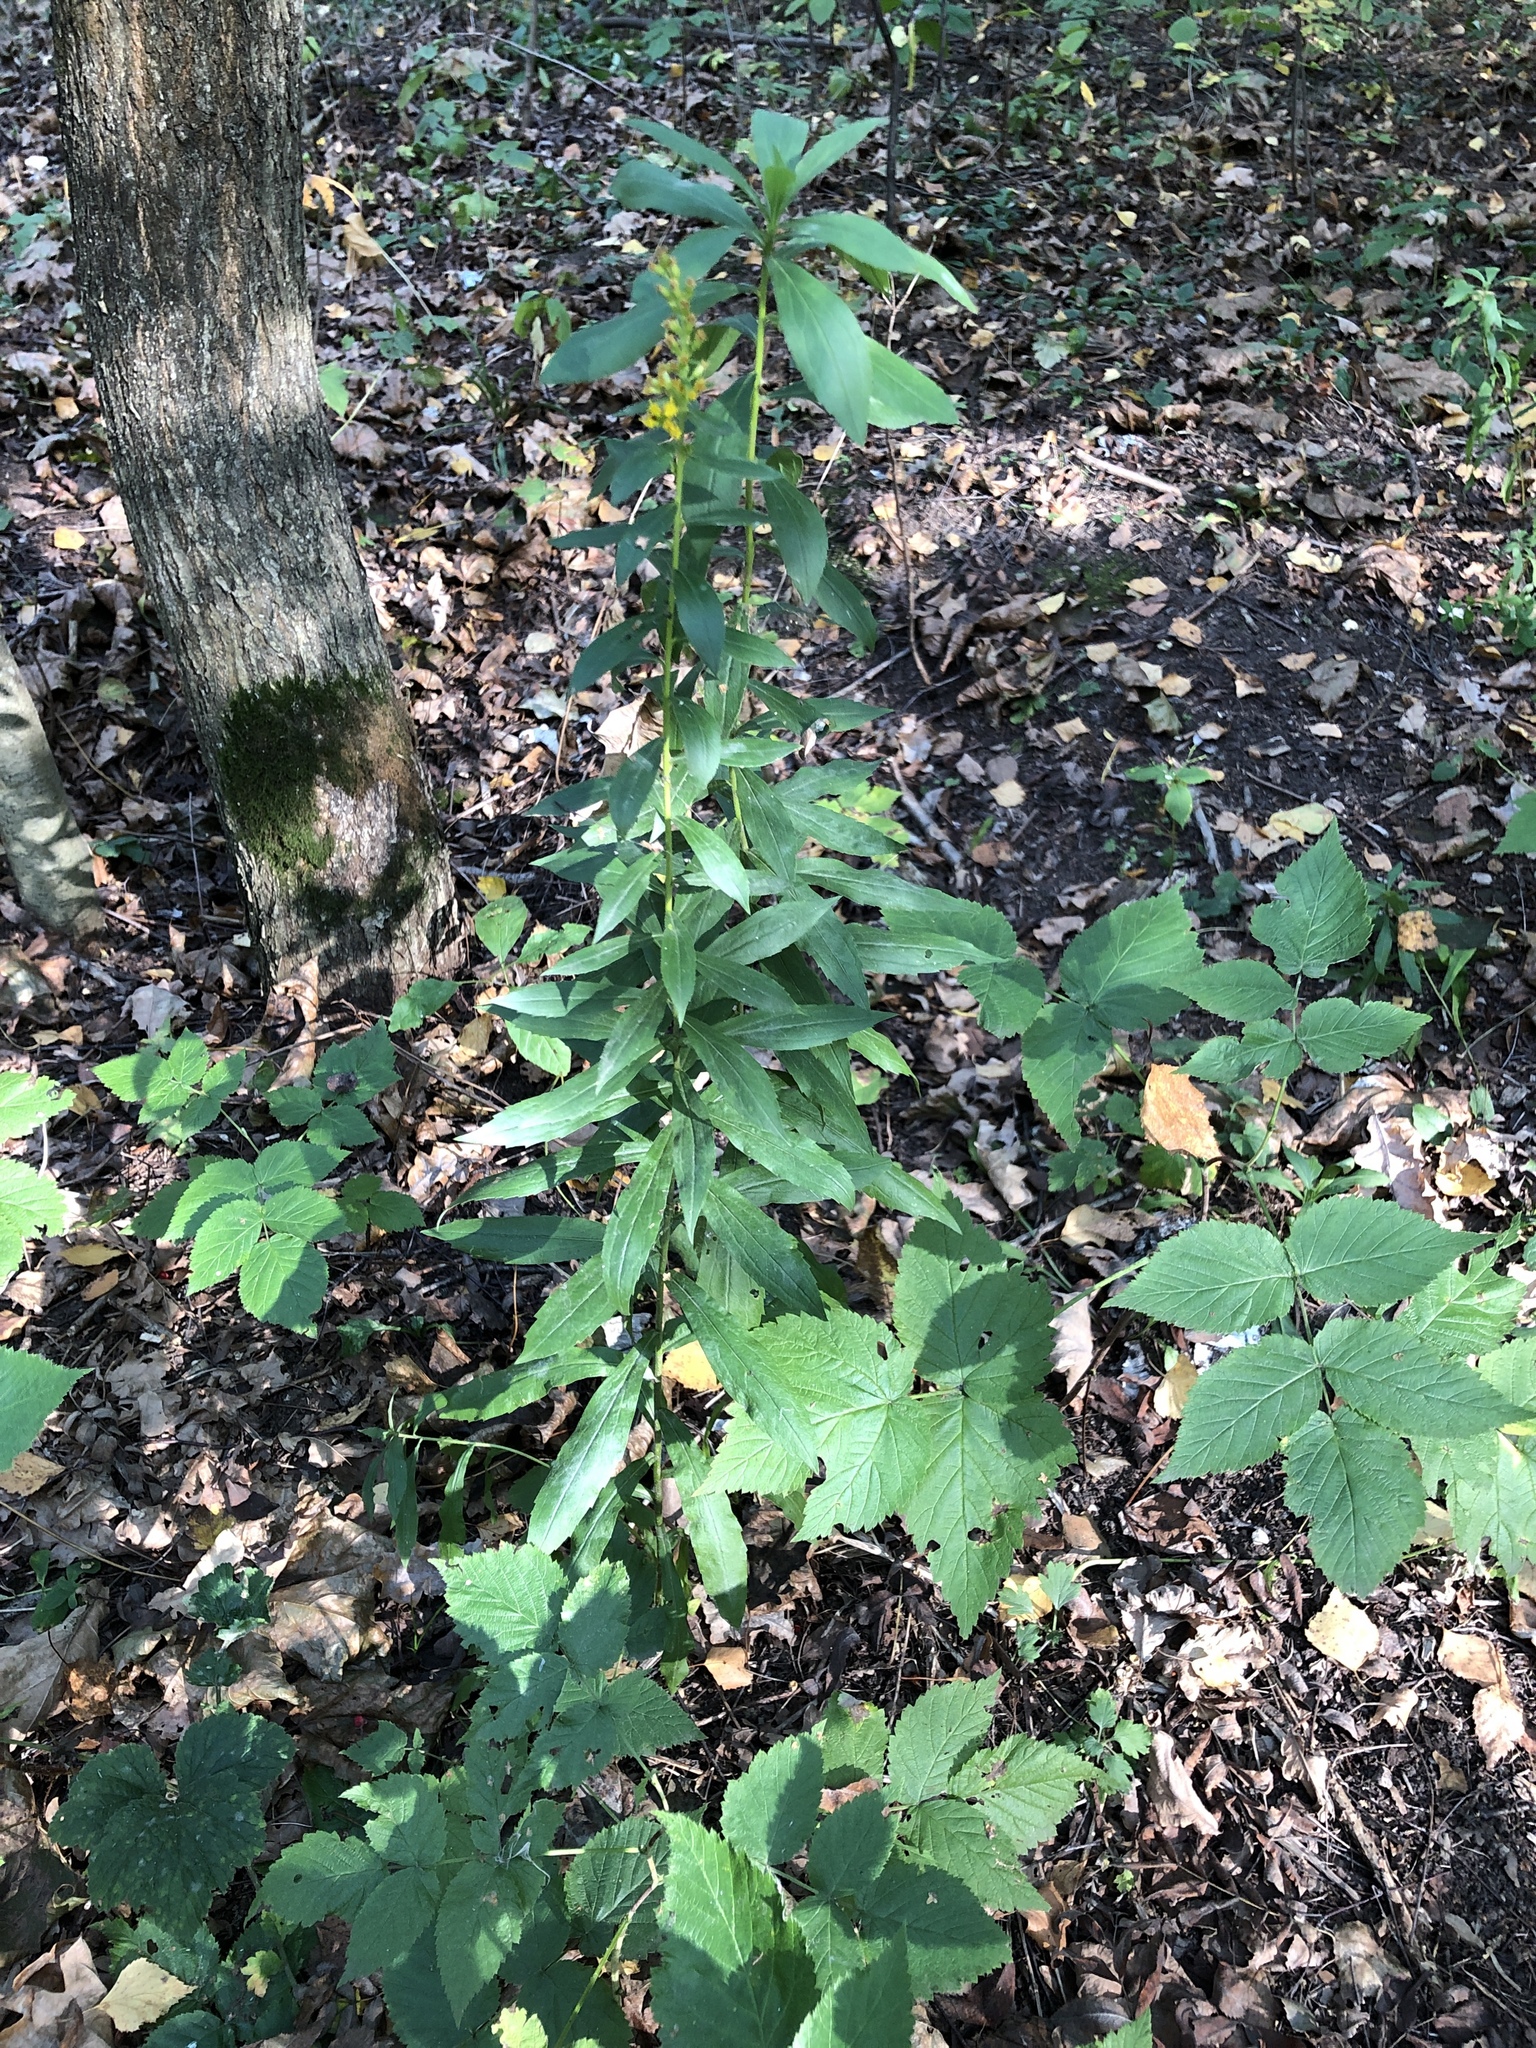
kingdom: Plantae
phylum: Tracheophyta
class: Magnoliopsida
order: Asterales
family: Asteraceae
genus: Solidago
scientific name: Solidago canadensis
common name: Canada goldenrod
